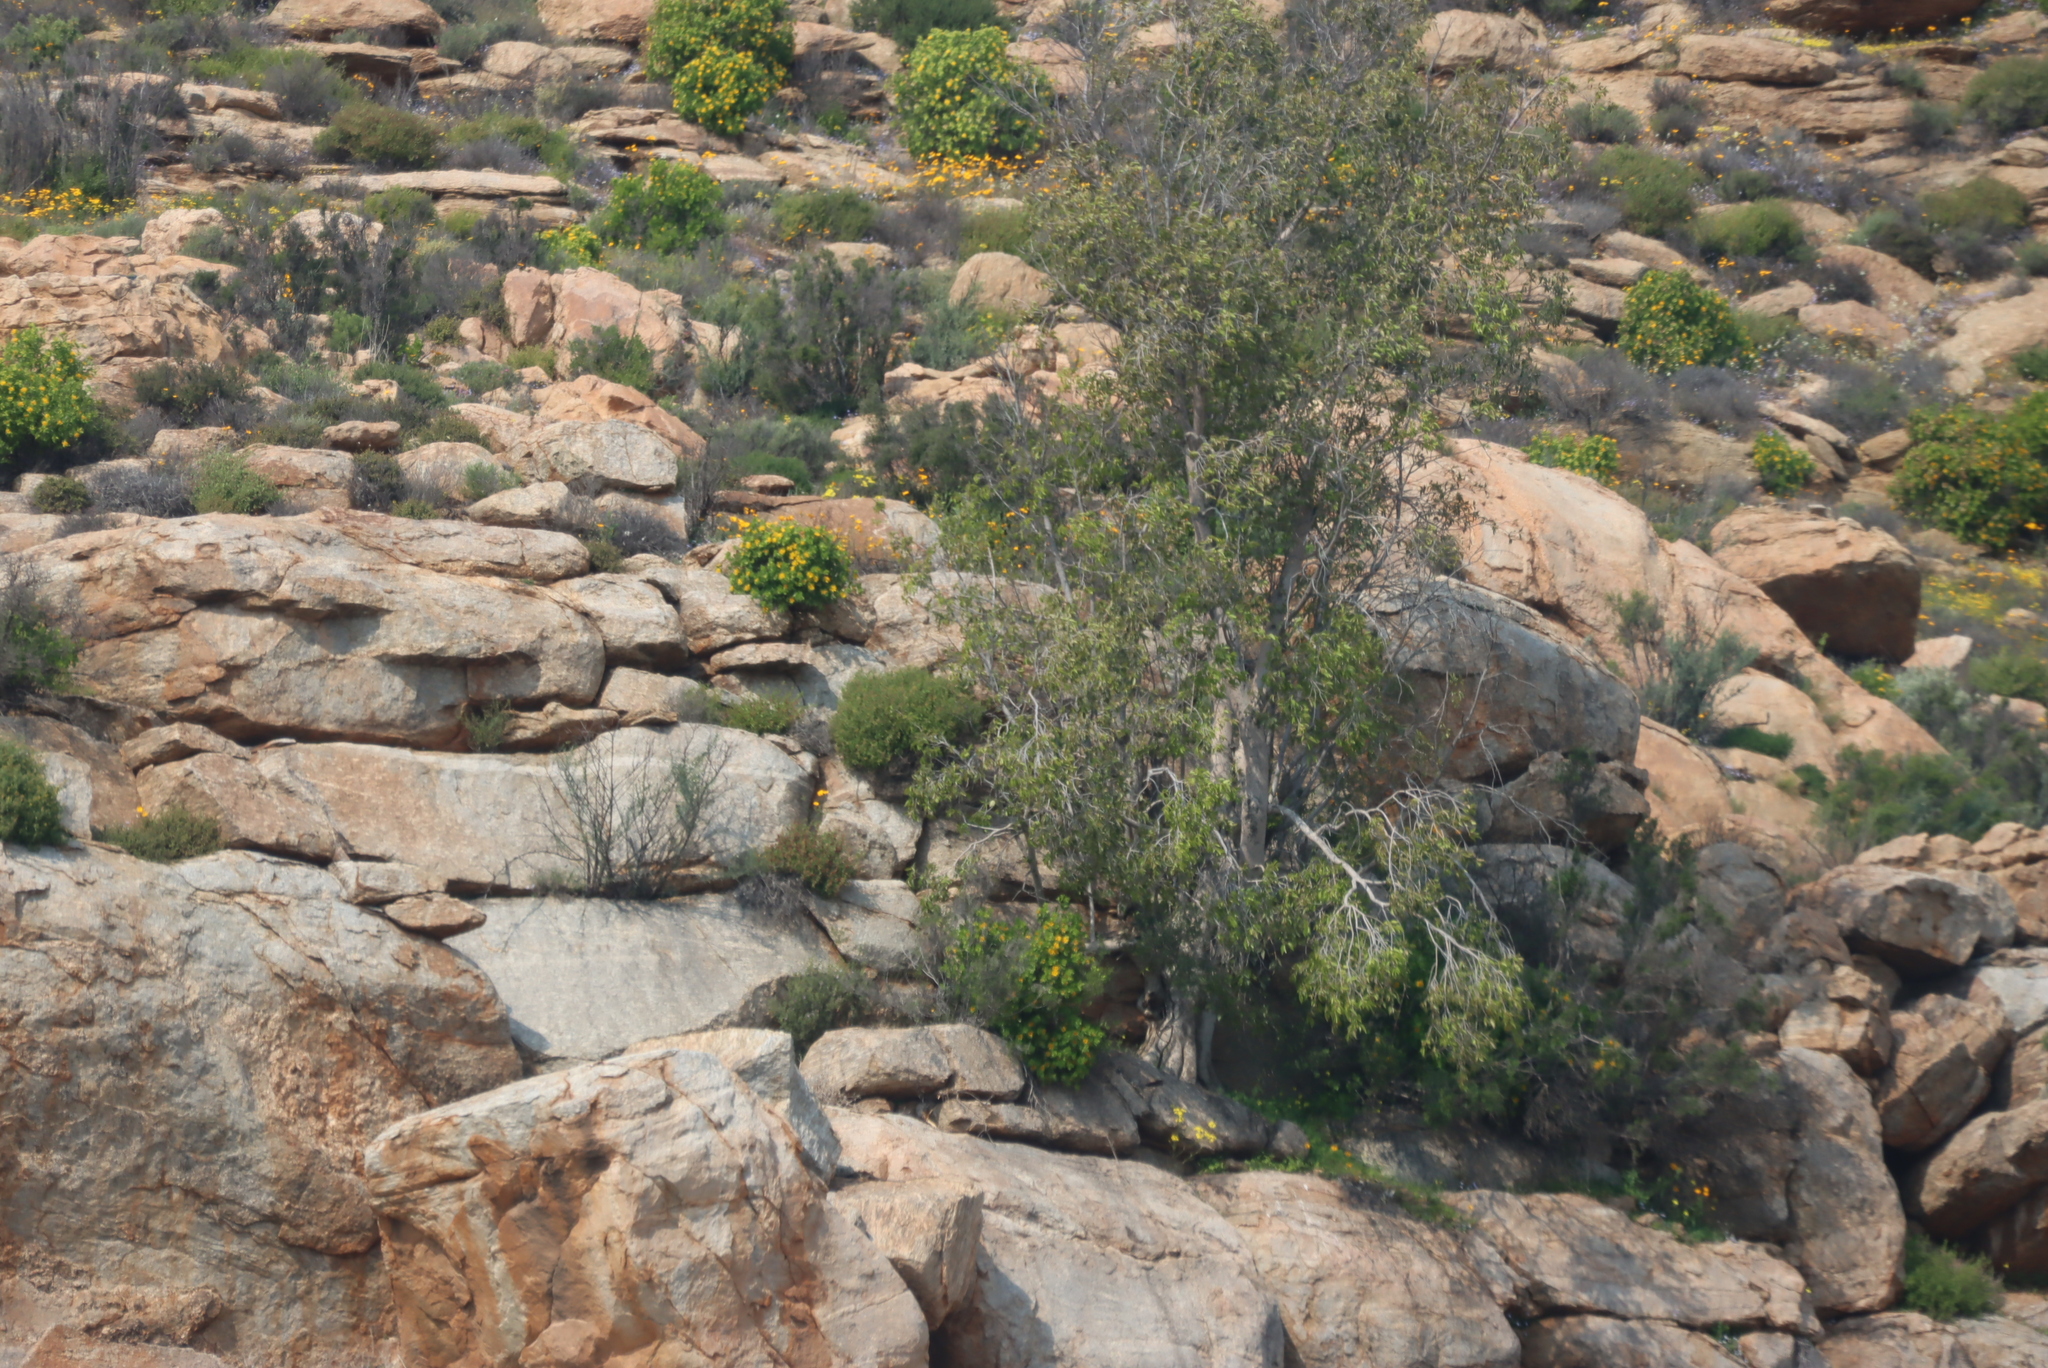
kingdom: Plantae
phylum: Tracheophyta
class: Magnoliopsida
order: Rosales
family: Moraceae
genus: Ficus
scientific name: Ficus cordata
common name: Namaqua rock fig
